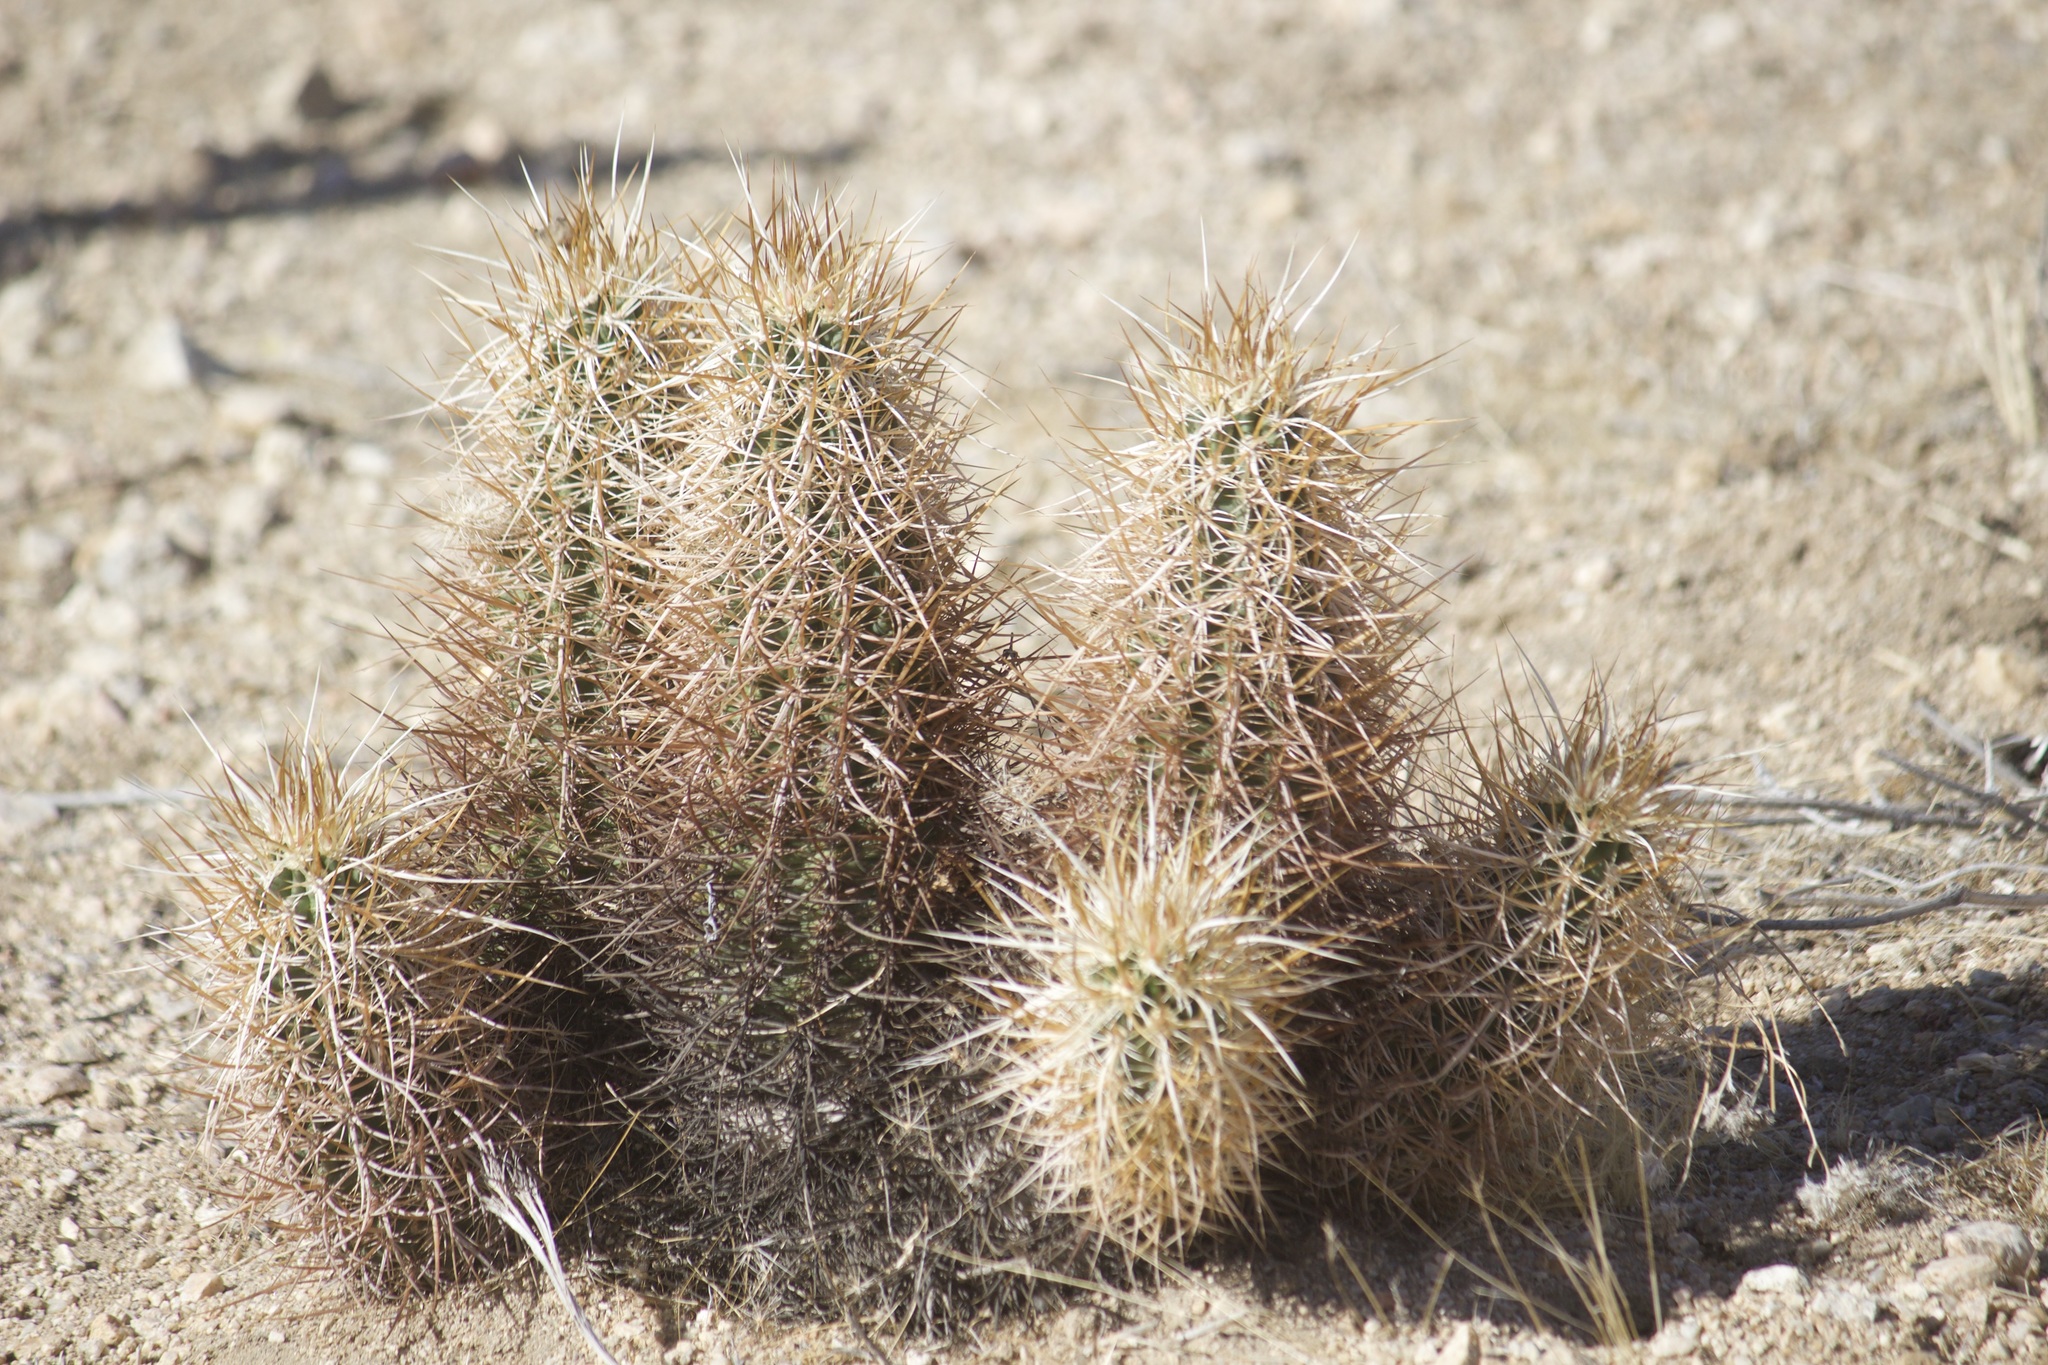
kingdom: Plantae
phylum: Tracheophyta
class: Magnoliopsida
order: Caryophyllales
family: Cactaceae
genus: Echinocereus
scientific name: Echinocereus engelmannii
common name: Engelmann's hedgehog cactus
